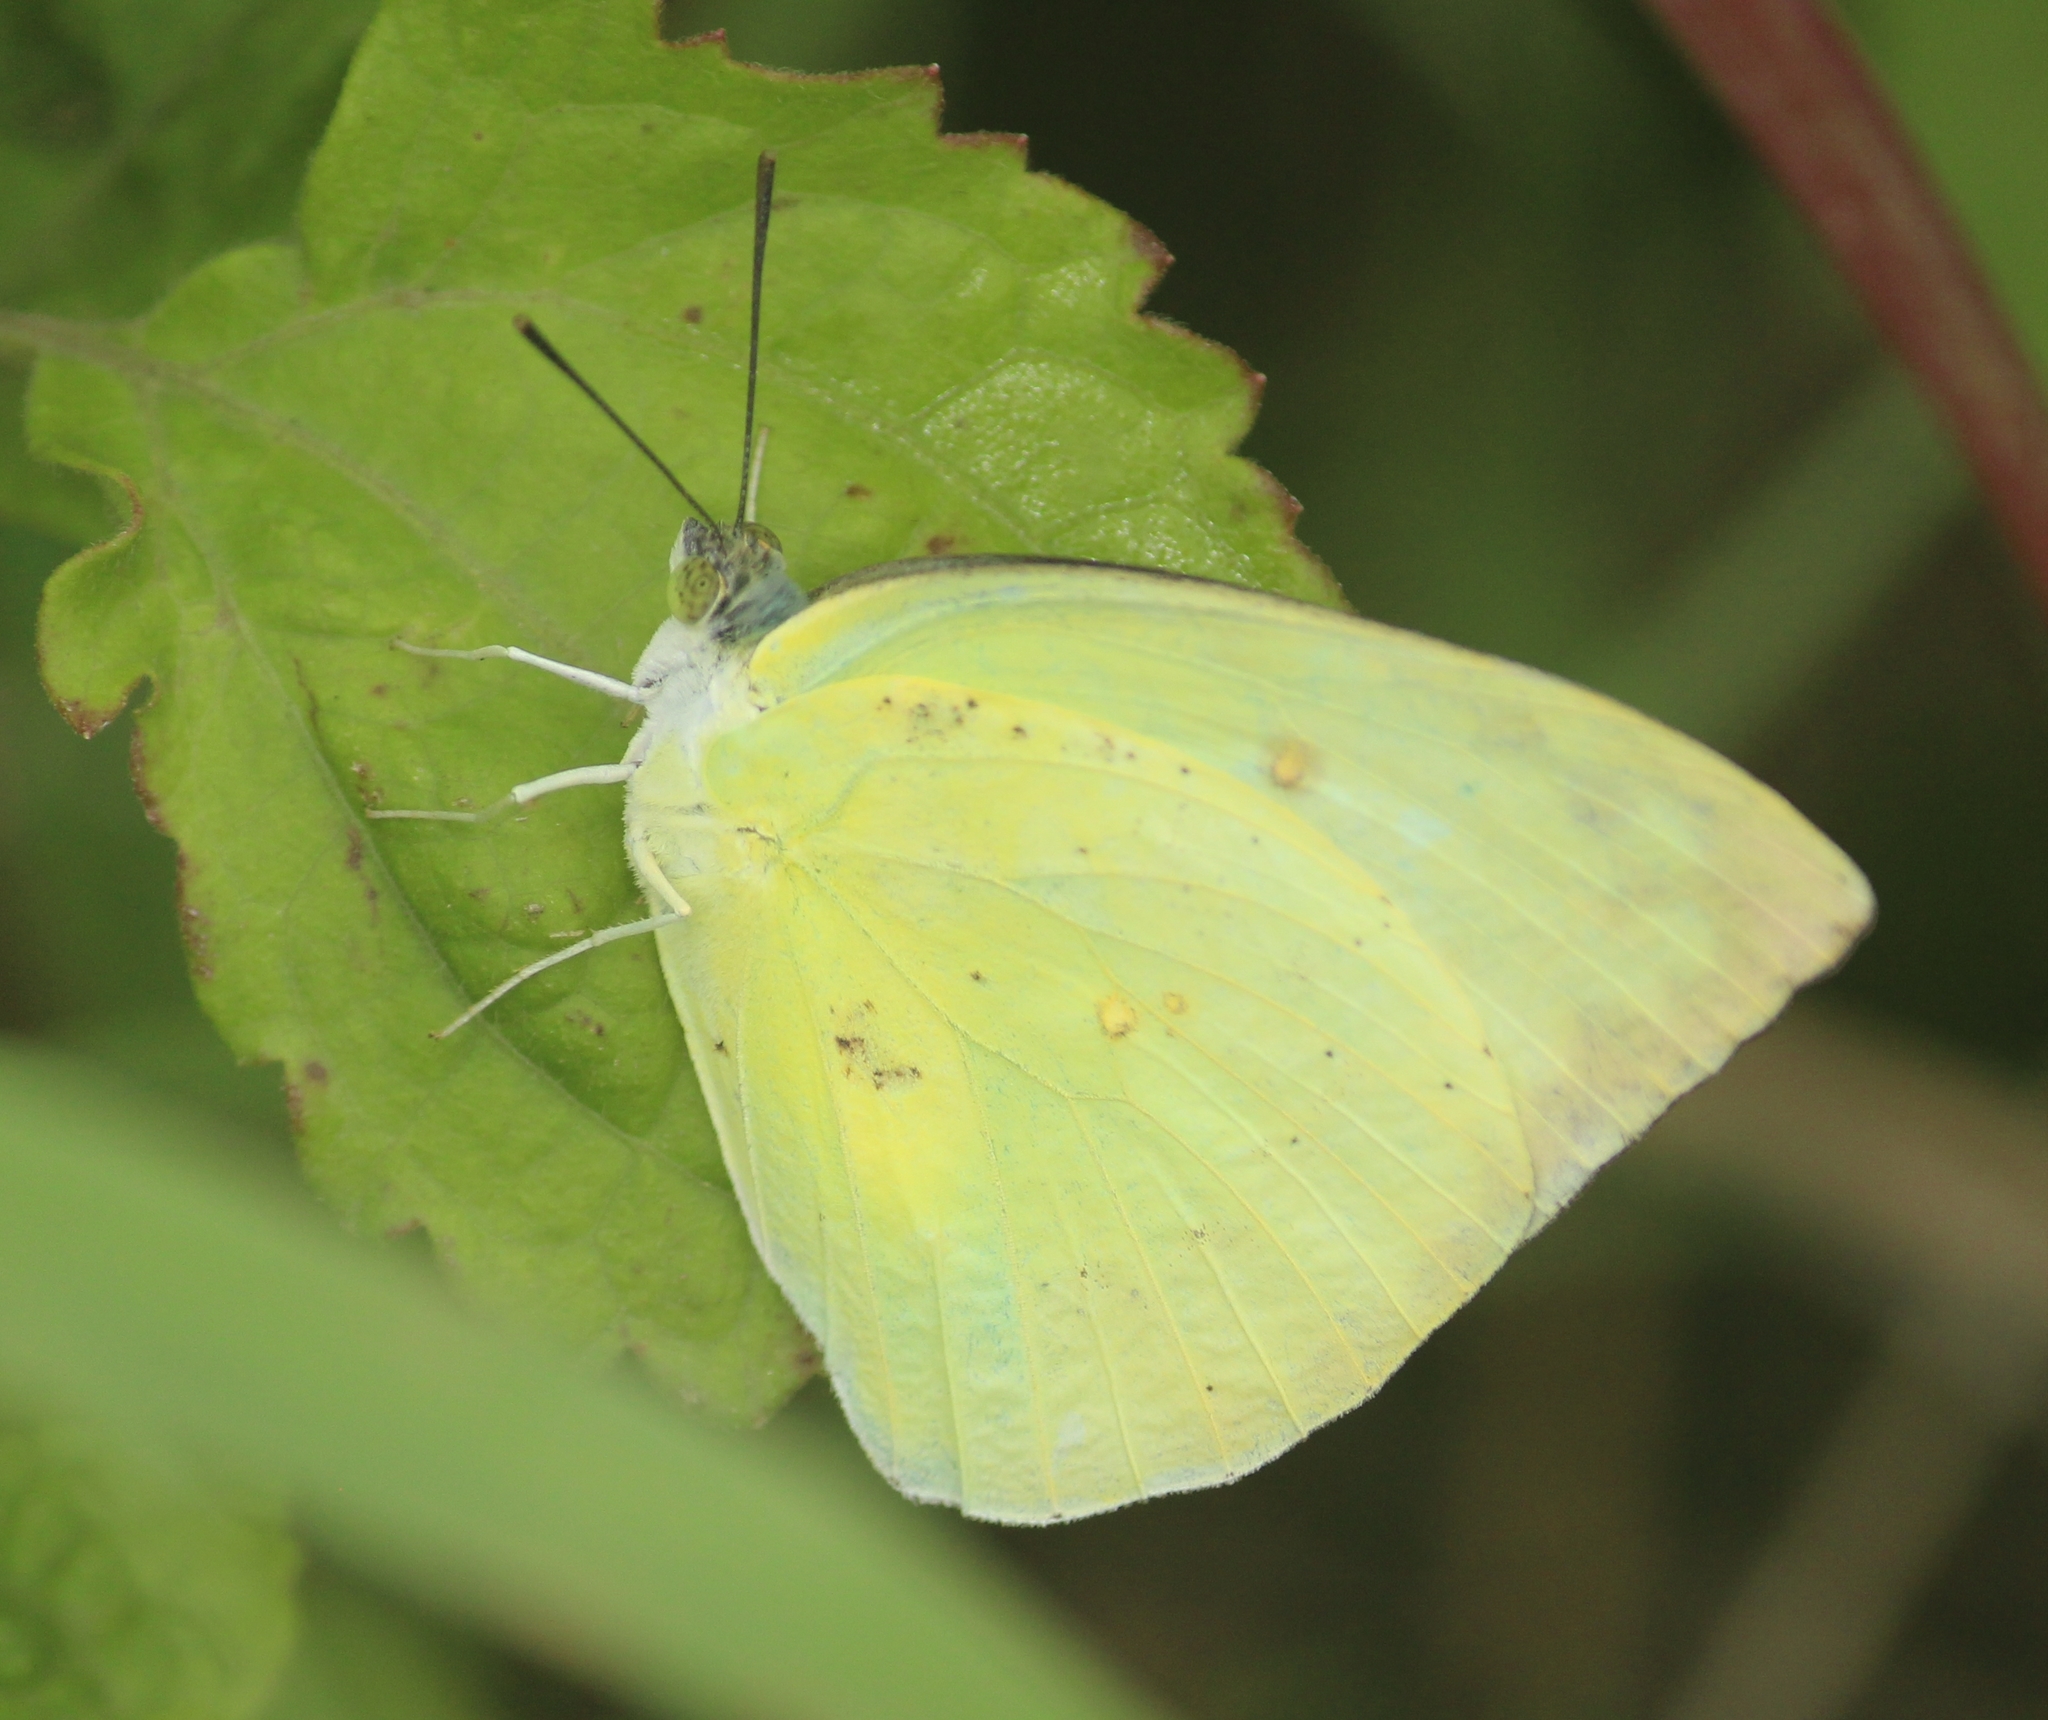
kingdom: Animalia
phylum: Arthropoda
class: Insecta
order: Lepidoptera
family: Pieridae
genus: Catopsilia
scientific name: Catopsilia pomona
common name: Common emigrant
